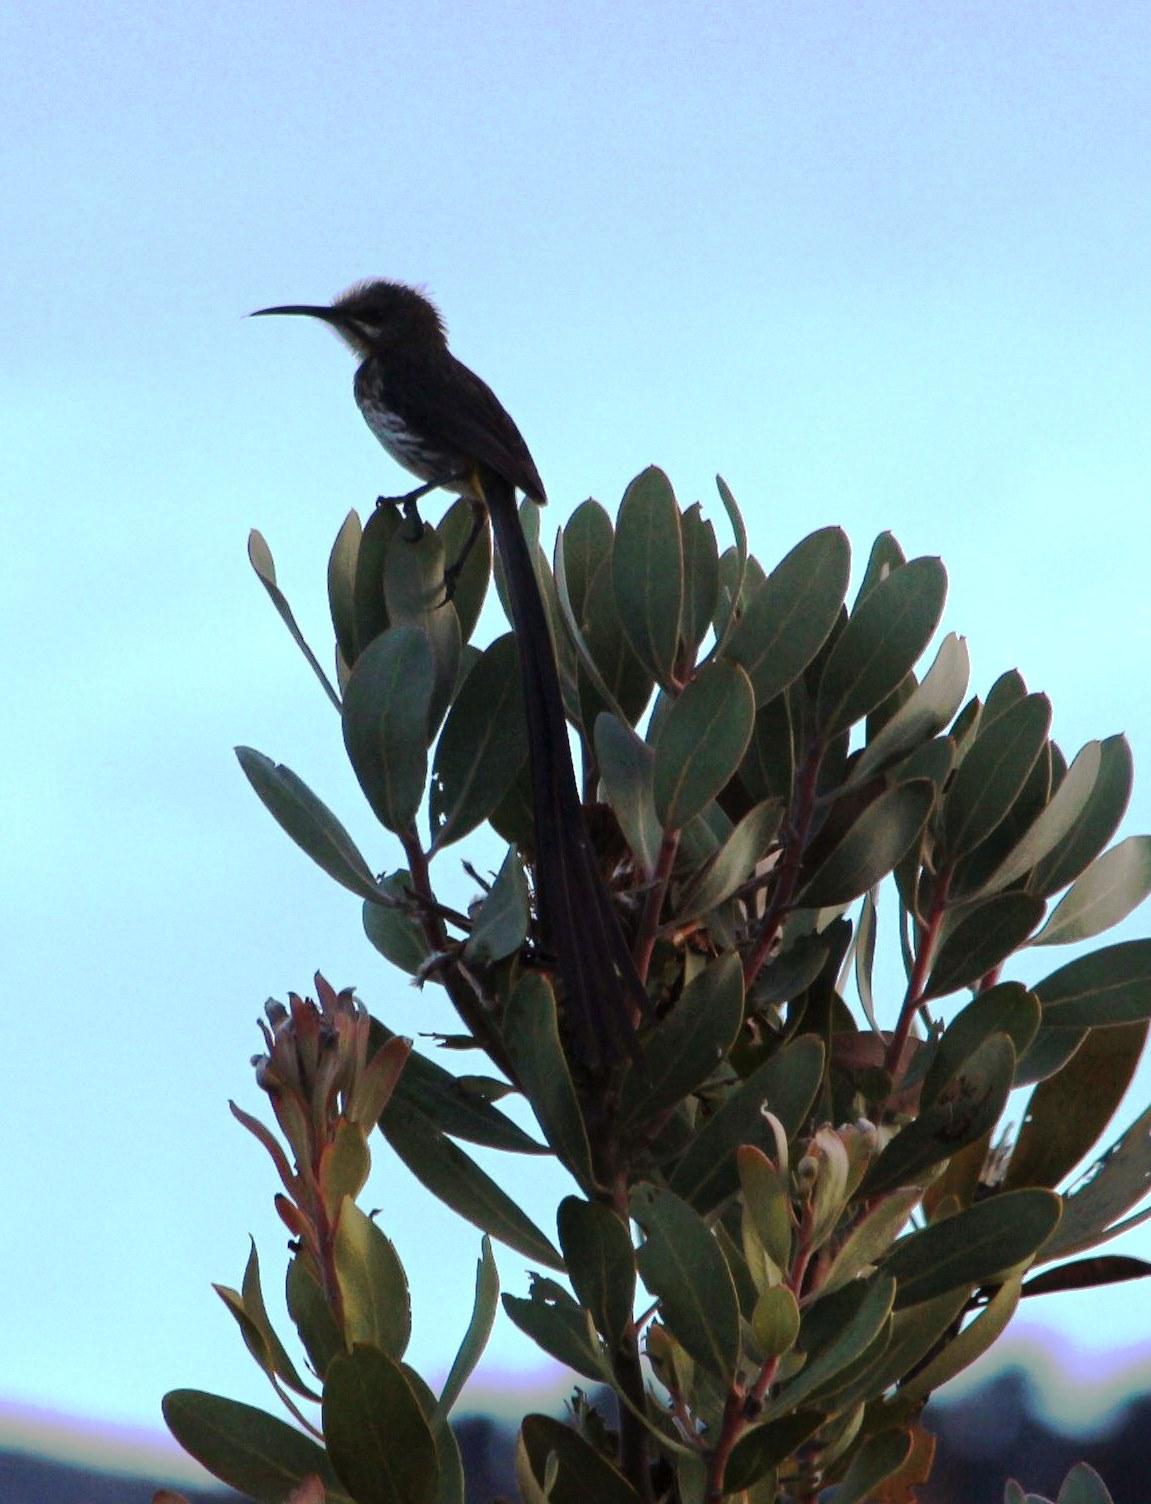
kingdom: Animalia
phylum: Chordata
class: Aves
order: Passeriformes
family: Promeropidae
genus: Promerops
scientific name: Promerops cafer
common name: Cape sugarbird
